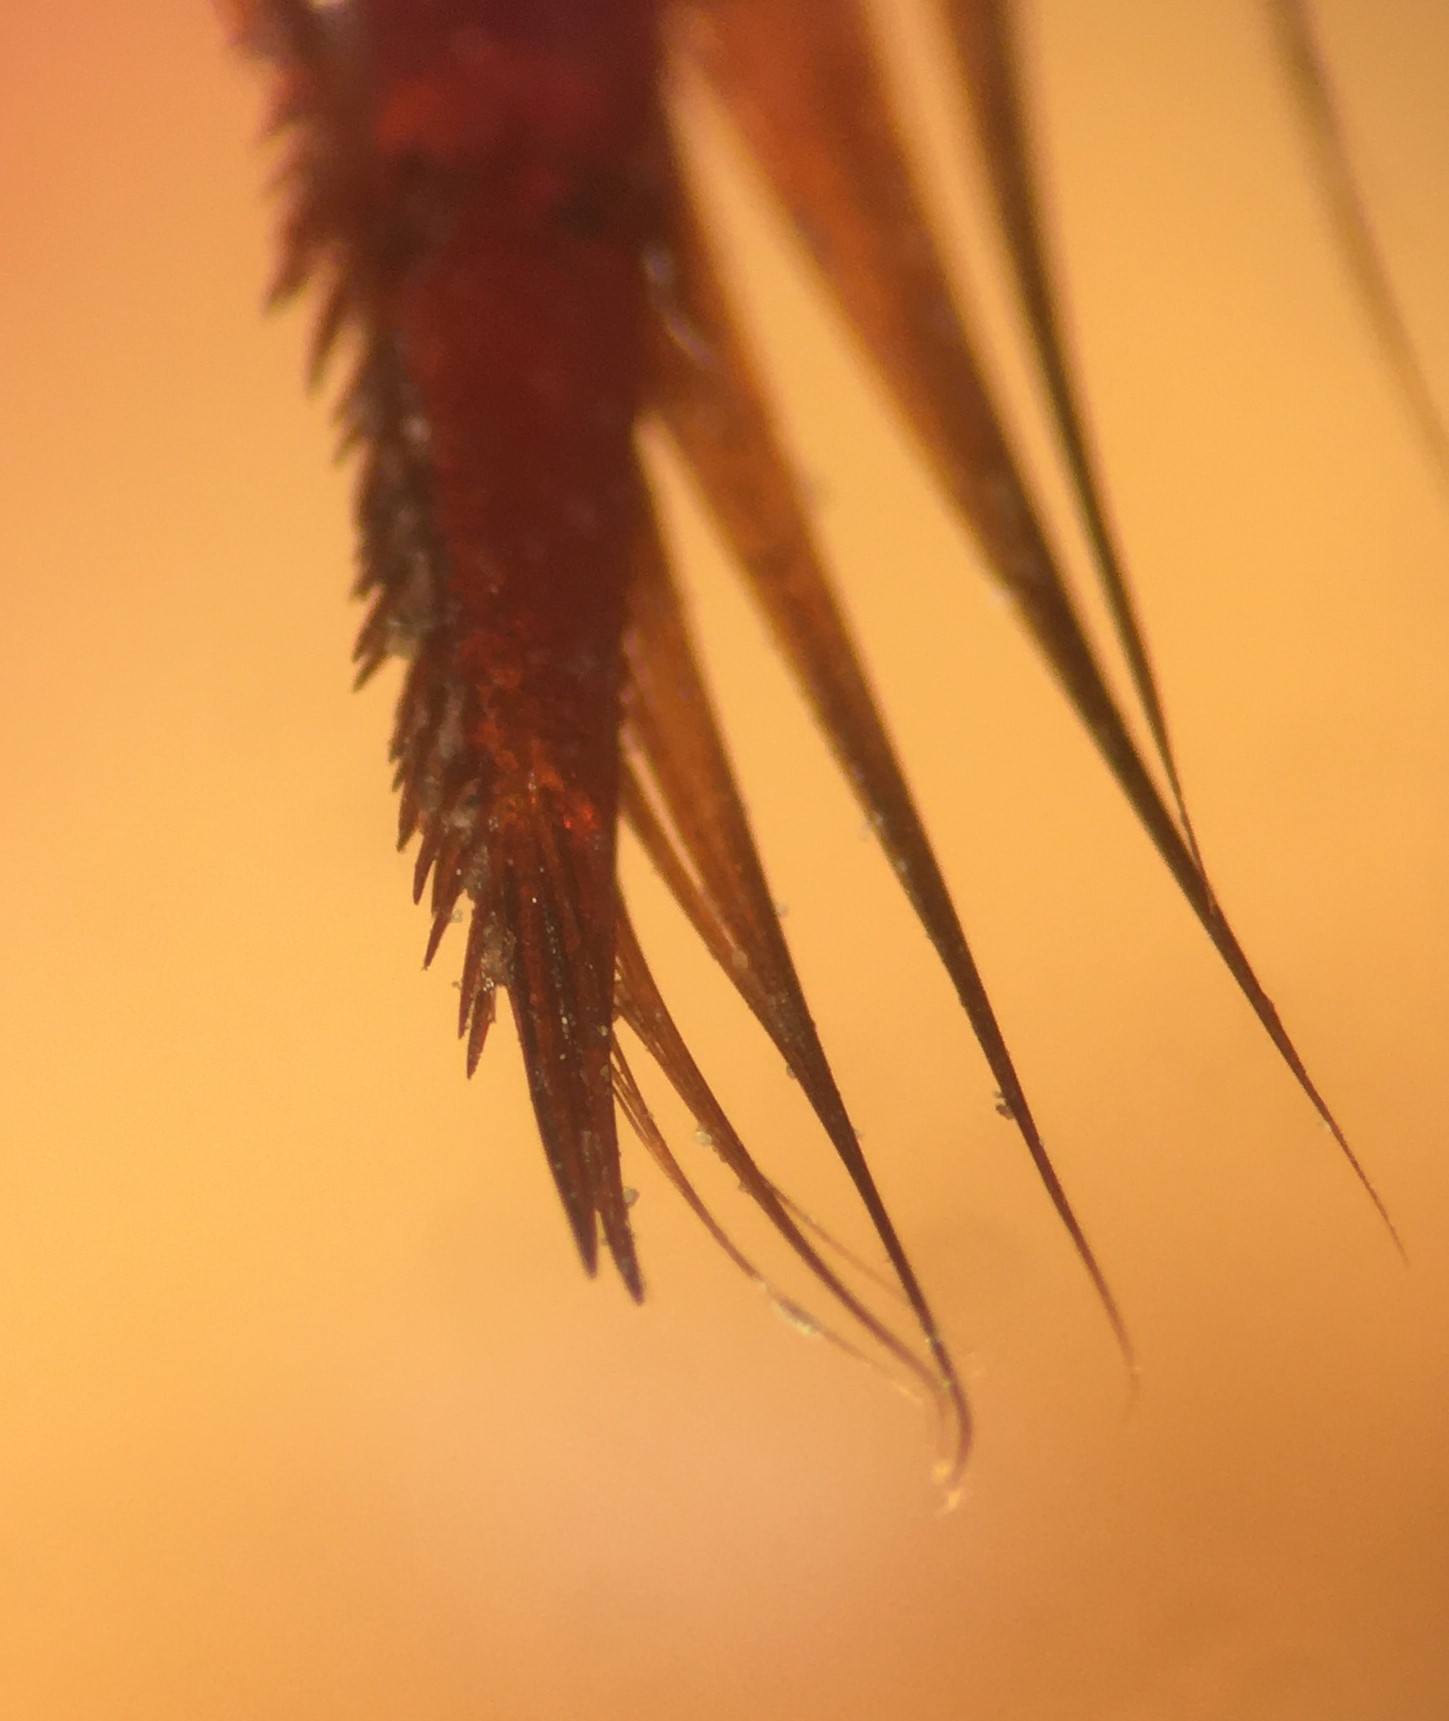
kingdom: Animalia
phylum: Arthropoda
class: Insecta
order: Coleoptera
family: Dytiscidae
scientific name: Dytiscidae
